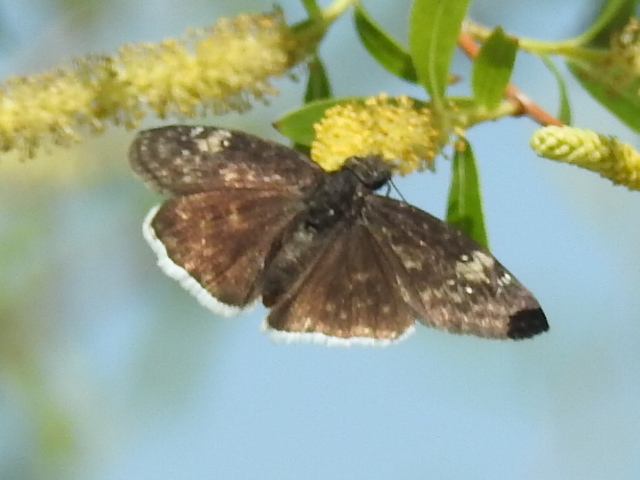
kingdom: Animalia
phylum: Arthropoda
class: Insecta
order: Lepidoptera
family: Hesperiidae
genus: Erynnis
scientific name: Erynnis funeralis
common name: Funereal duskywing
